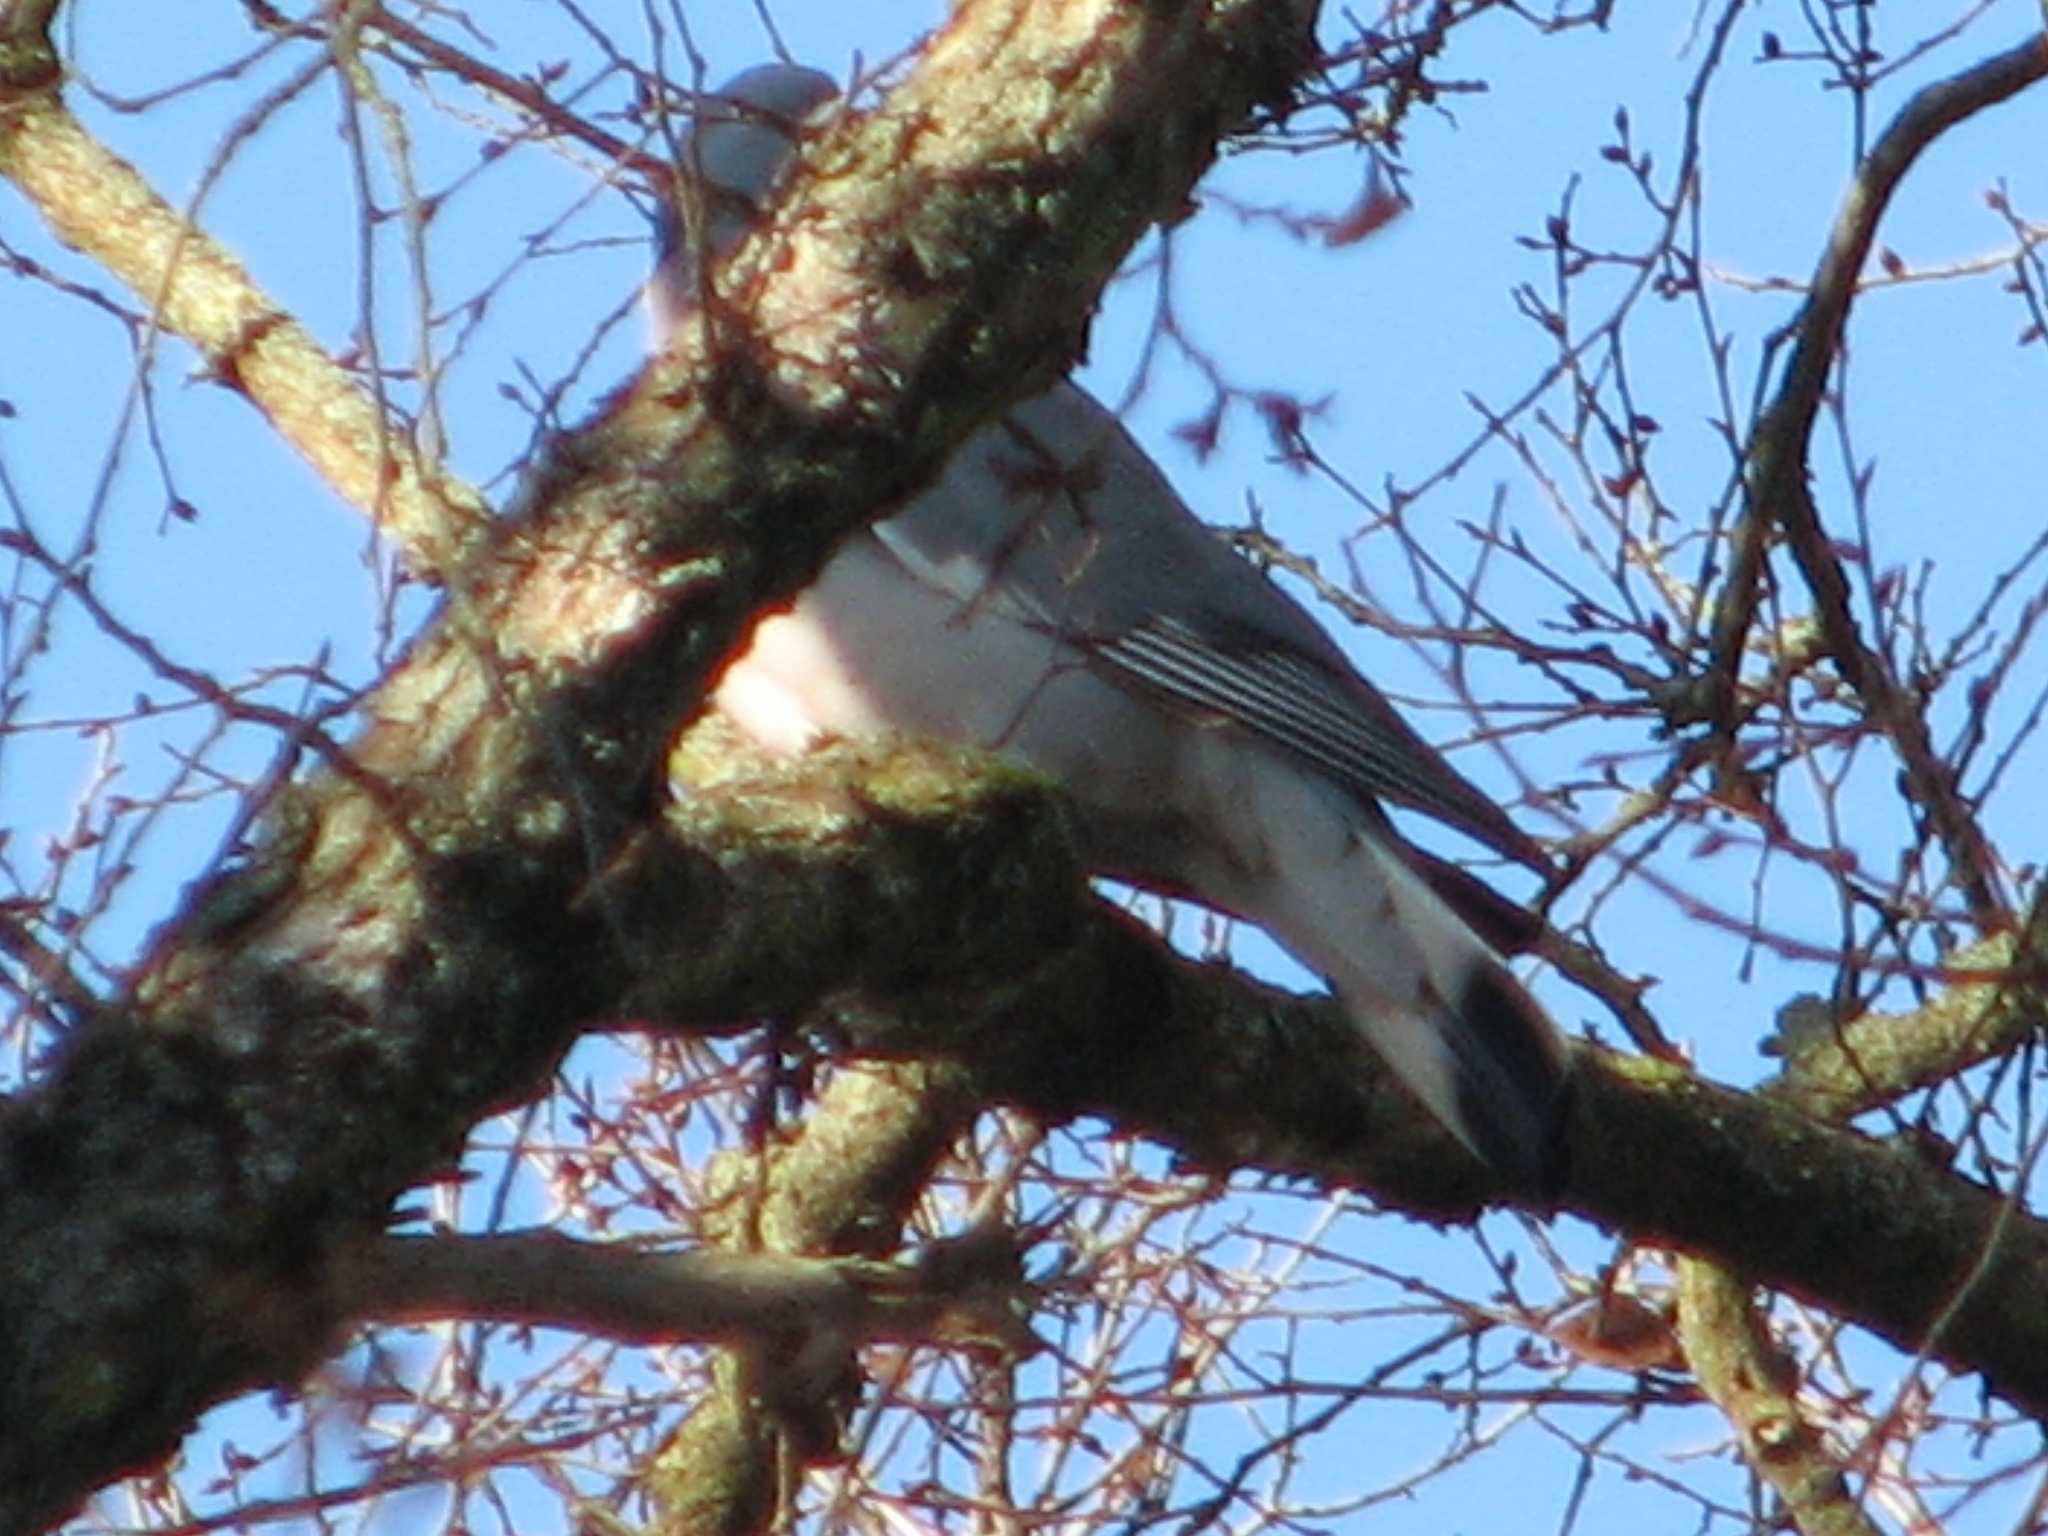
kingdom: Animalia
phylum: Chordata
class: Aves
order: Columbiformes
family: Columbidae
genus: Columba
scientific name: Columba palumbus
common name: Common wood pigeon
